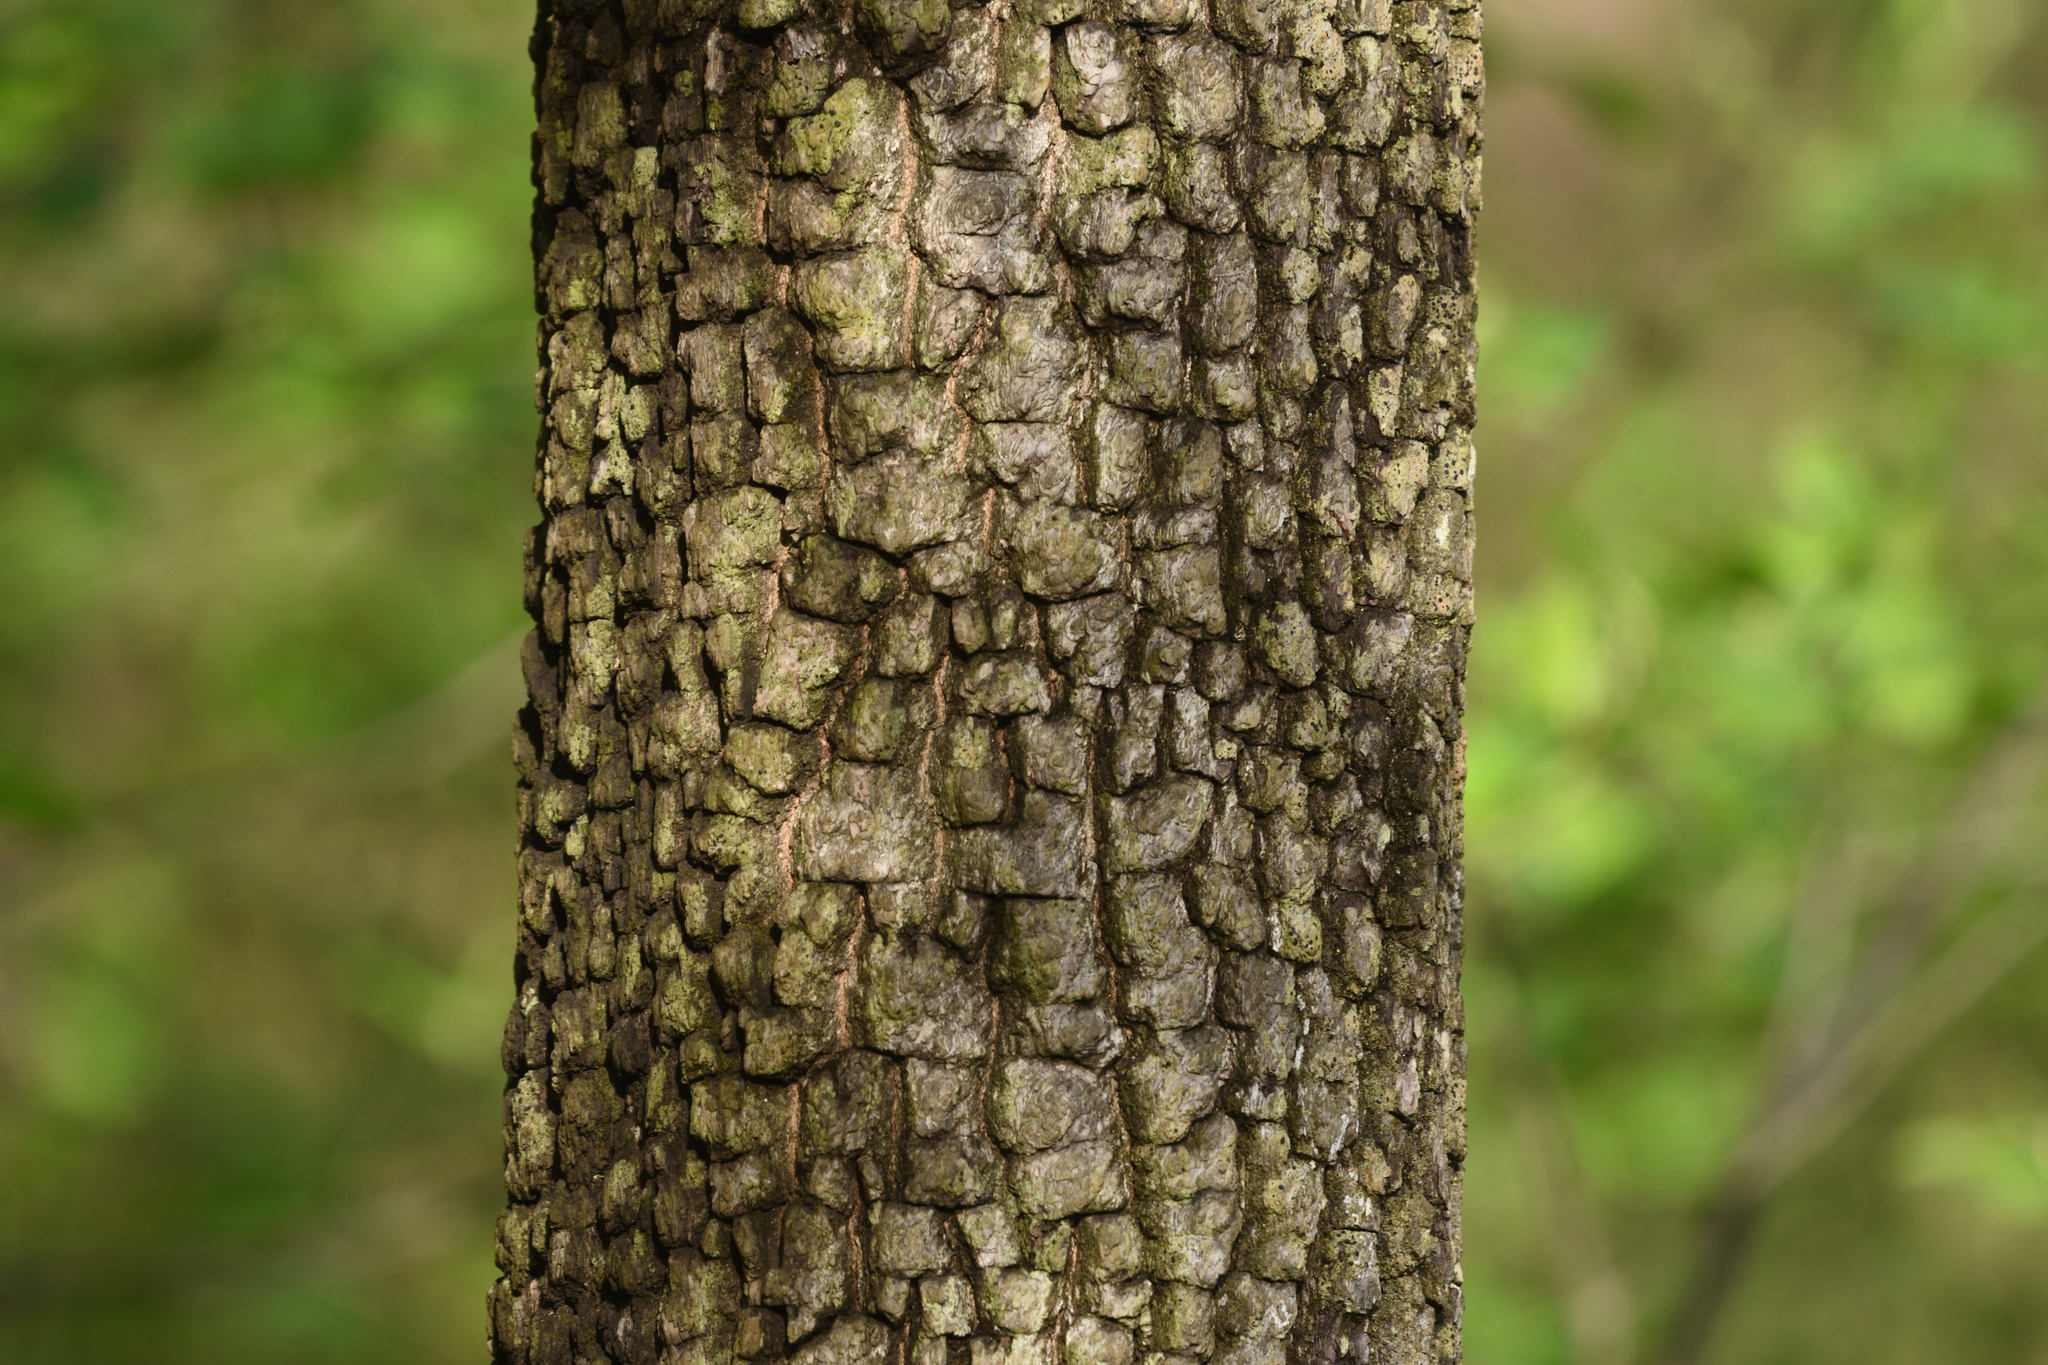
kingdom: Plantae
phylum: Tracheophyta
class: Magnoliopsida
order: Ericales
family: Ebenaceae
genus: Diospyros
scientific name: Diospyros virginiana
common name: Persimmon
